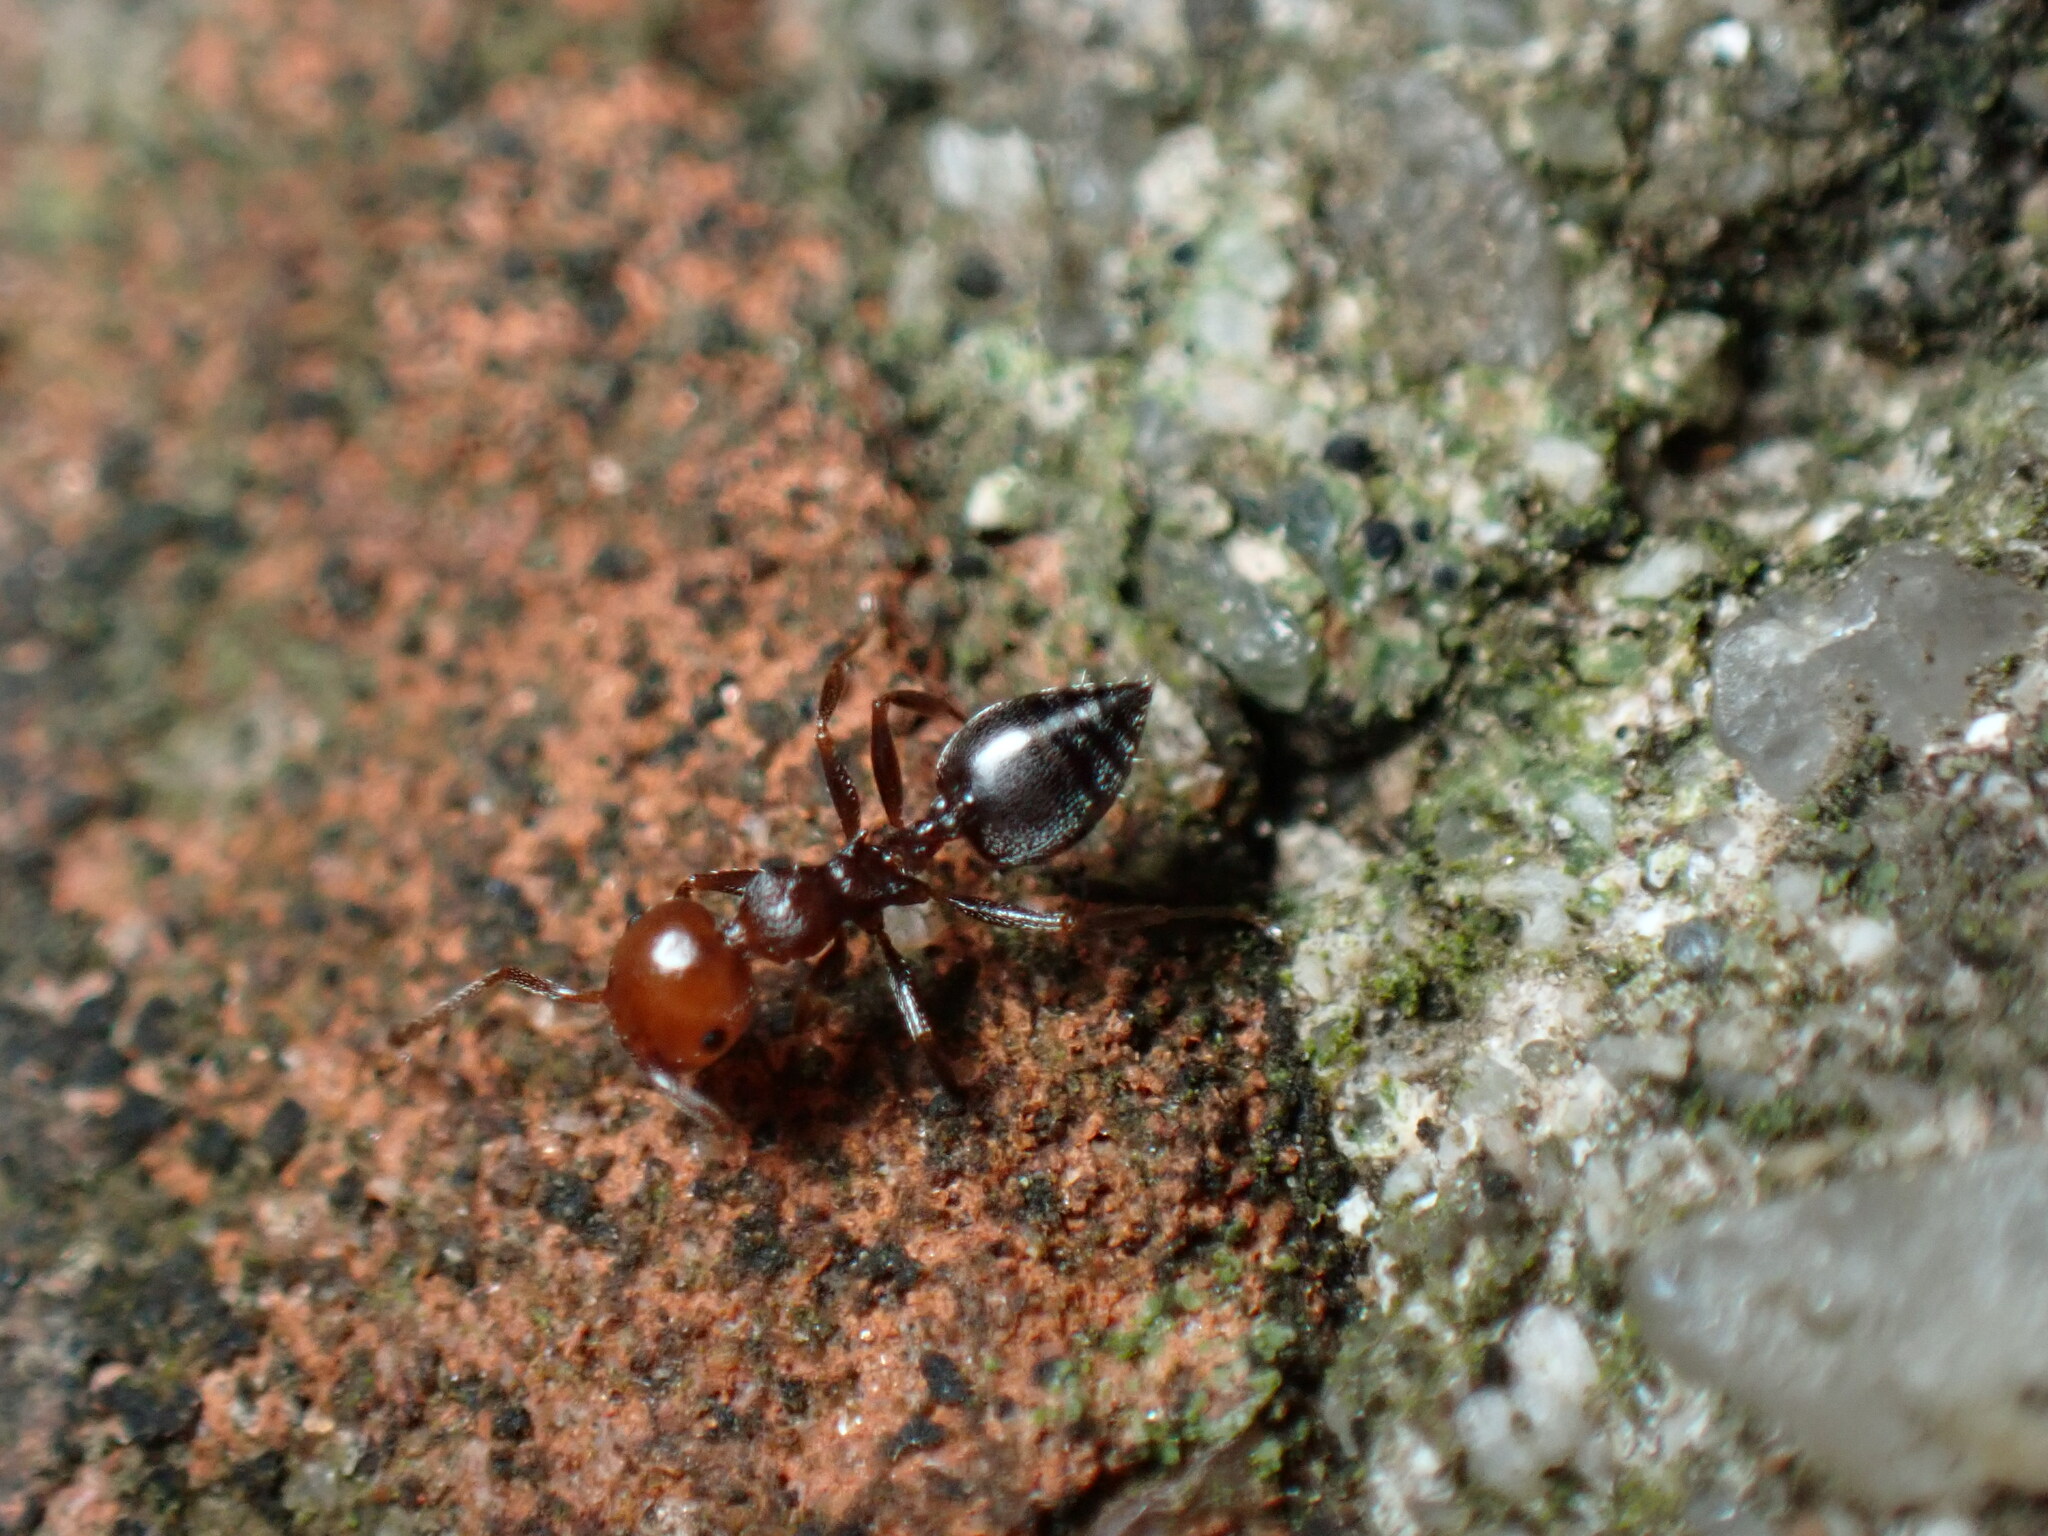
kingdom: Animalia
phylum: Arthropoda
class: Insecta
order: Hymenoptera
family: Formicidae
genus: Crematogaster
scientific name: Crematogaster scutellaris
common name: Fourmi du liège
